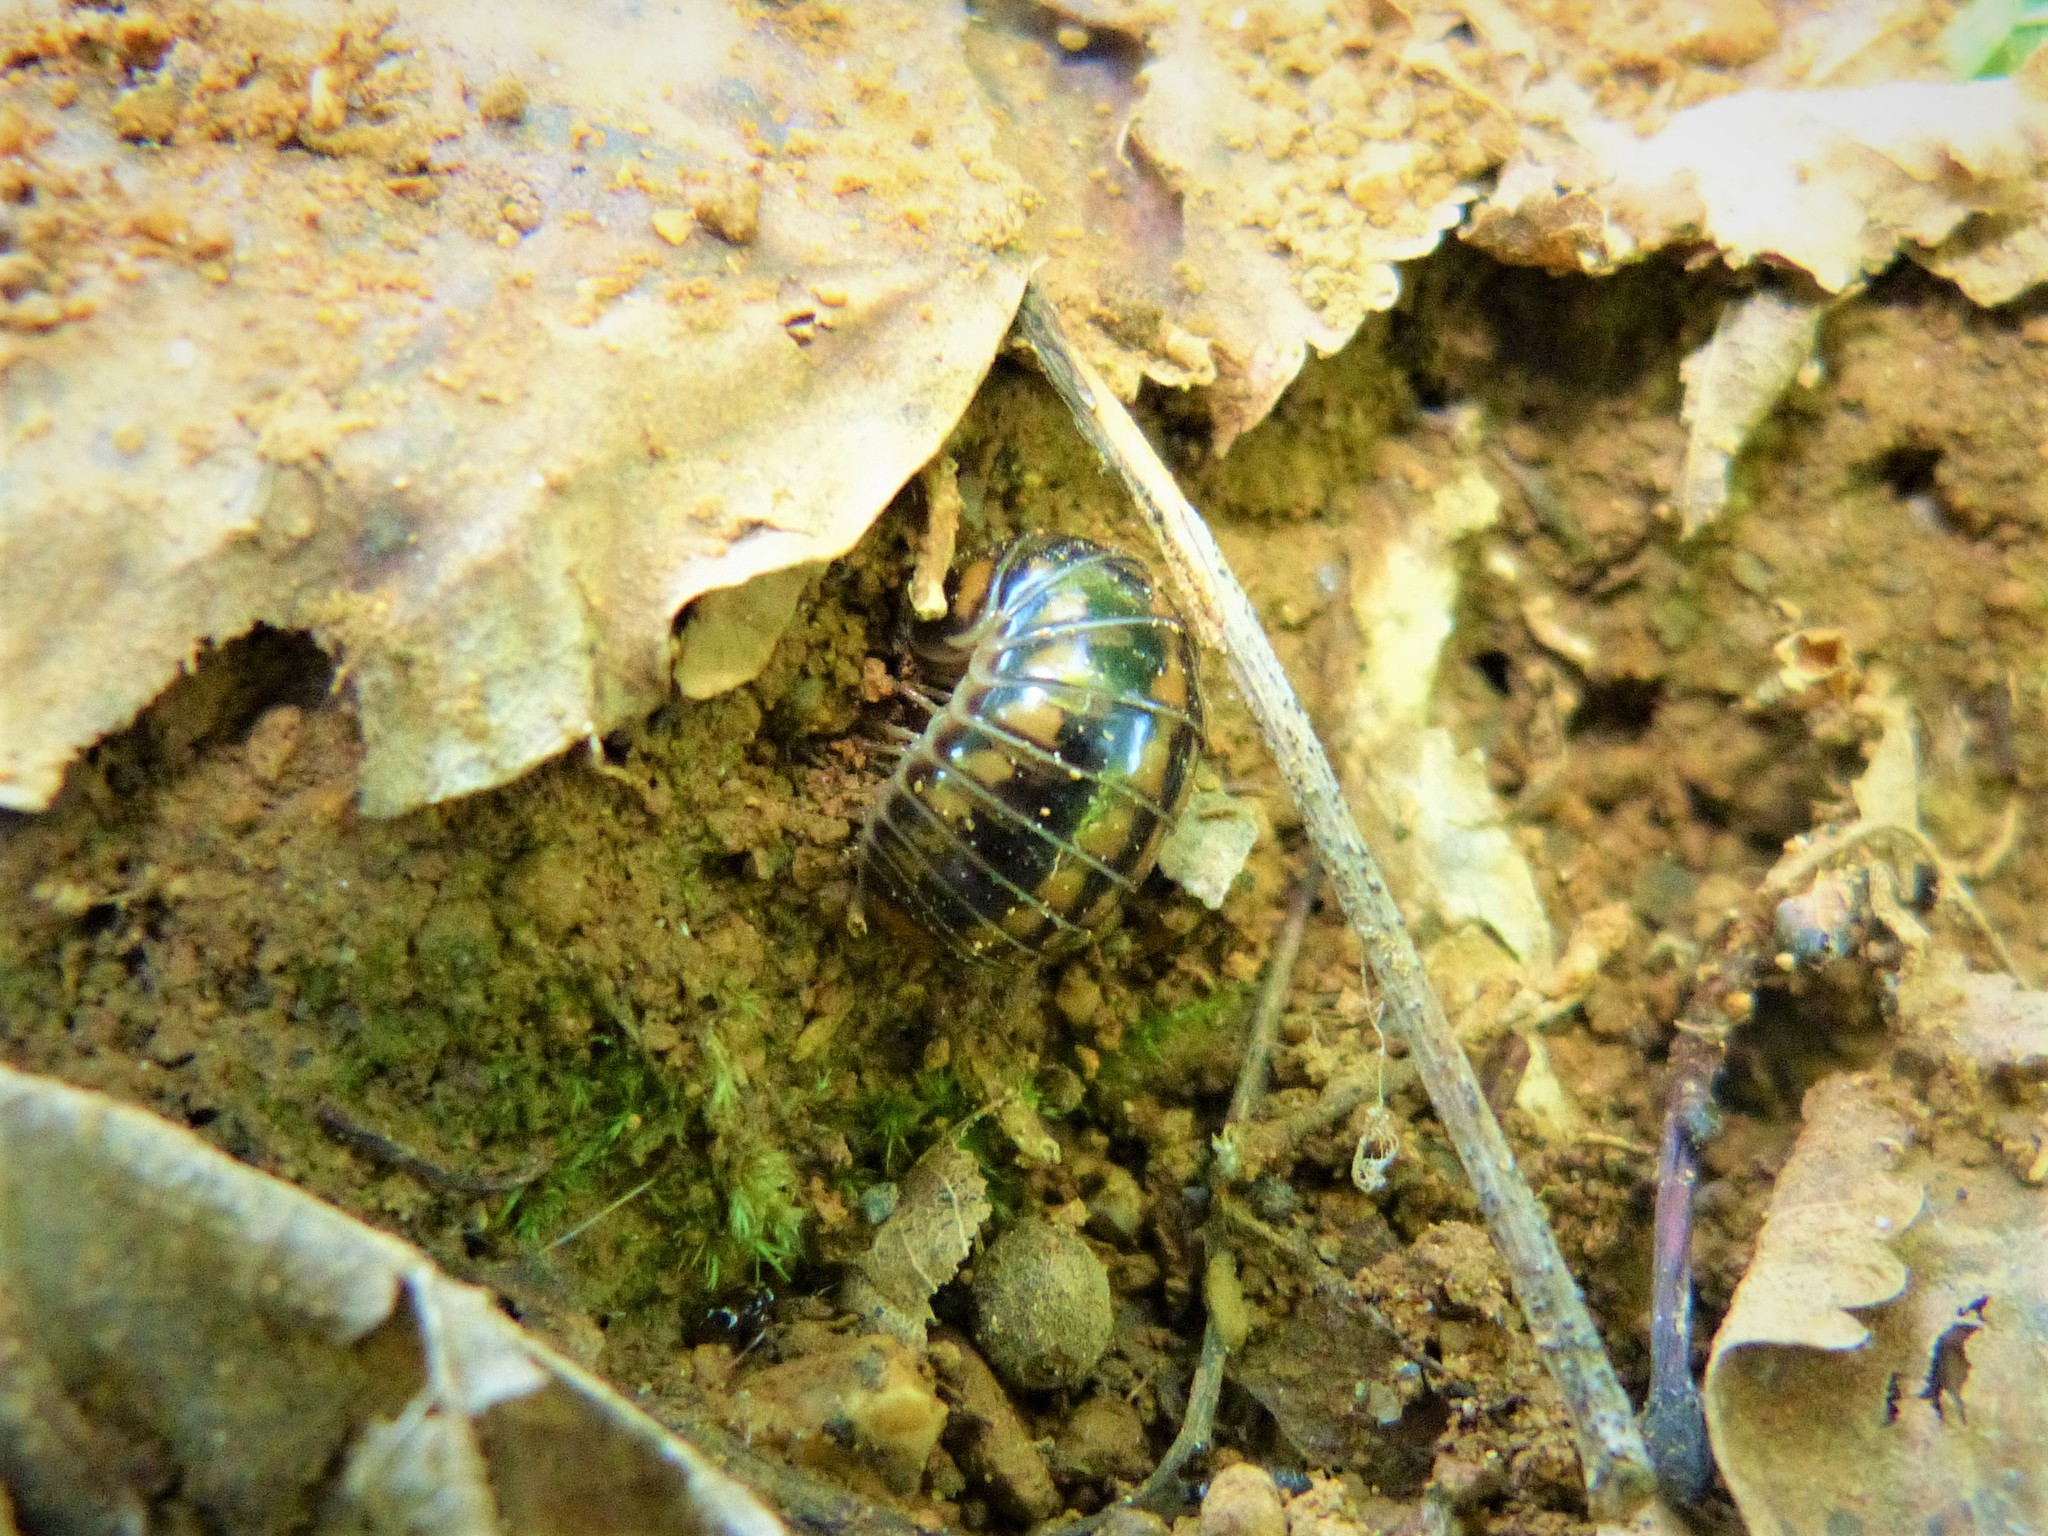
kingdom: Animalia
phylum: Arthropoda
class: Diplopoda
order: Glomerida
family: Glomeridae
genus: Glomeris
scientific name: Glomeris connexa
